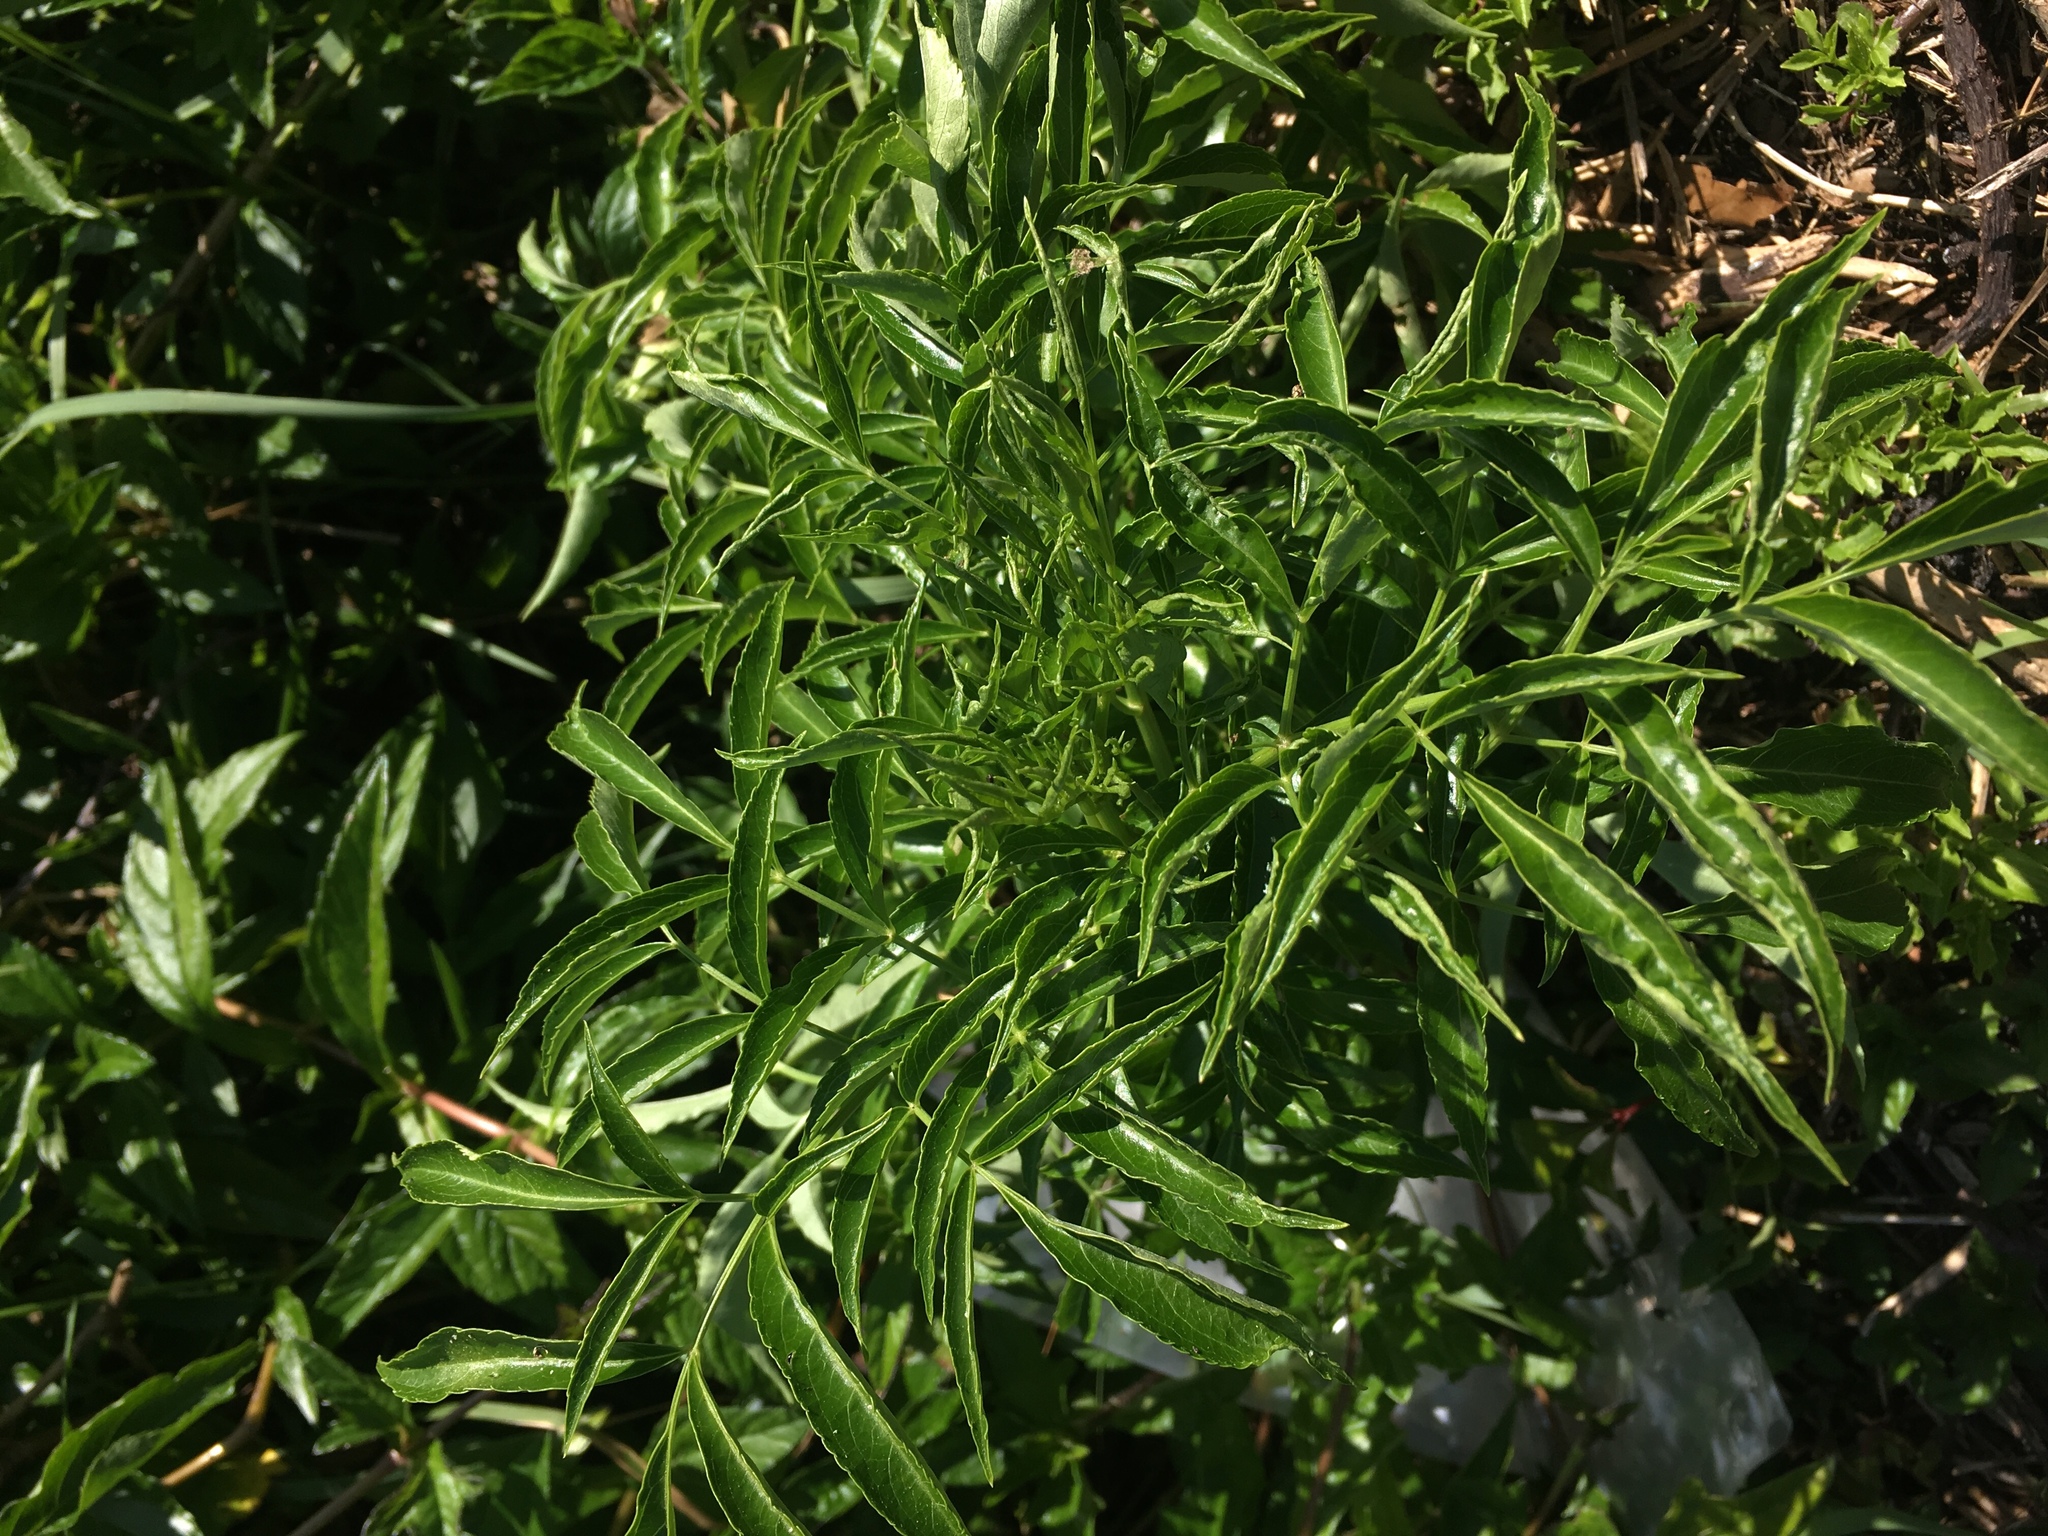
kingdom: Plantae
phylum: Tracheophyta
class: Magnoliopsida
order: Dipsacales
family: Viburnaceae
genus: Sambucus
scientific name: Sambucus canadensis
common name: American elder
